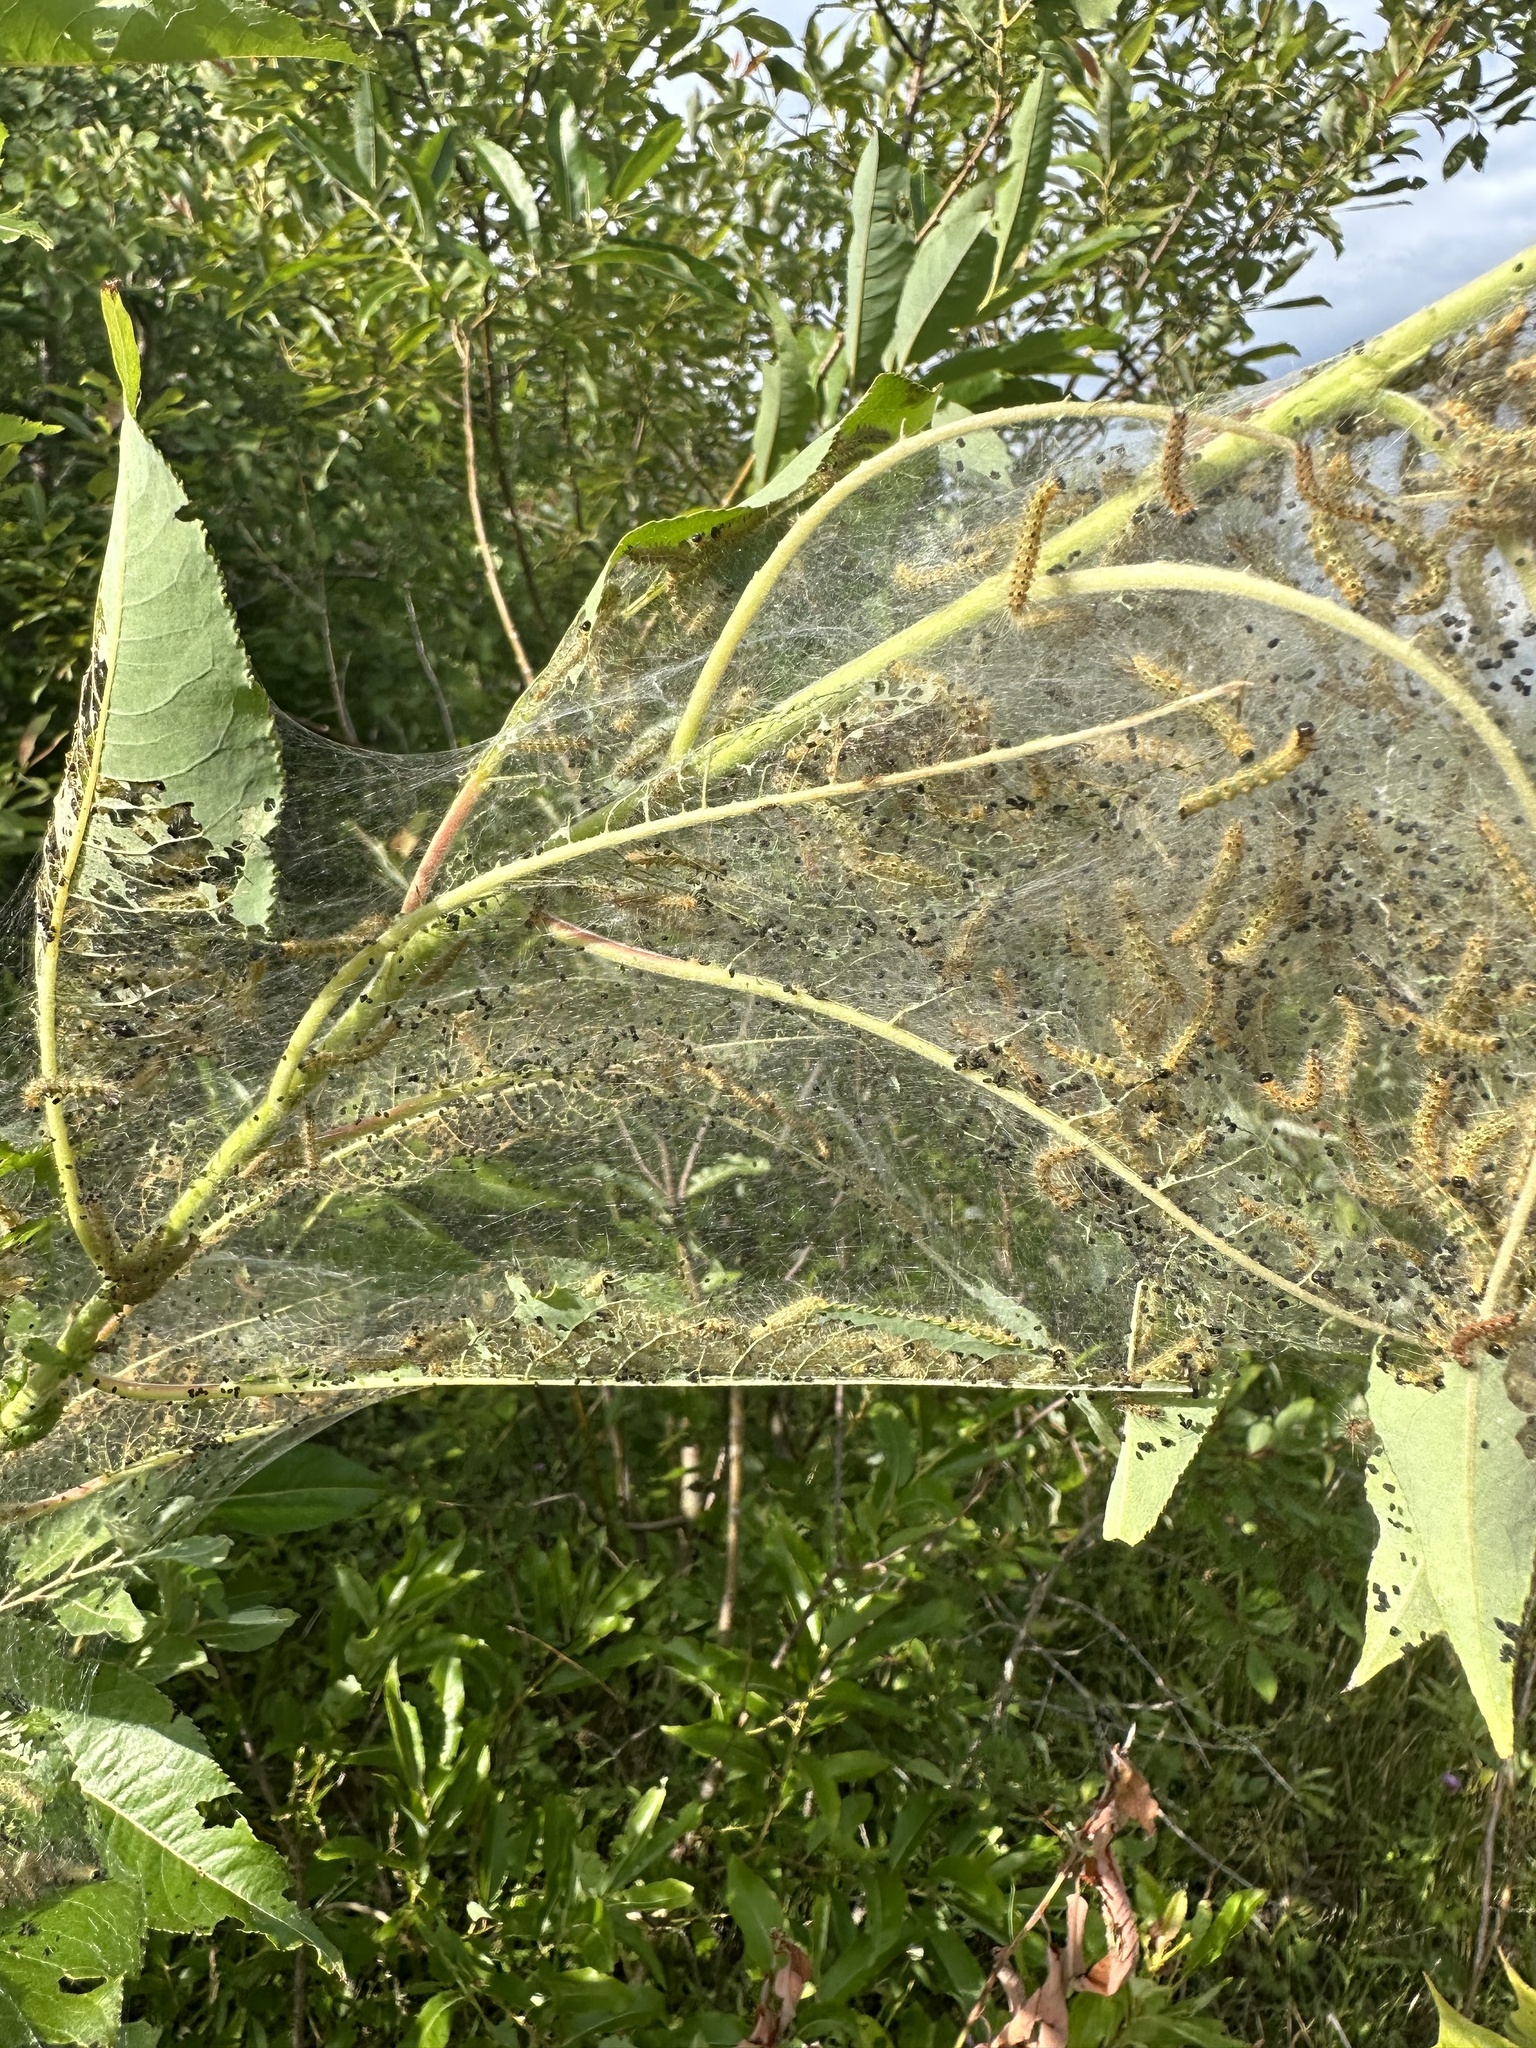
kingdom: Animalia
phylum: Arthropoda
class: Insecta
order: Lepidoptera
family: Erebidae
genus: Hyphantria
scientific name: Hyphantria cunea
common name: American white moth
